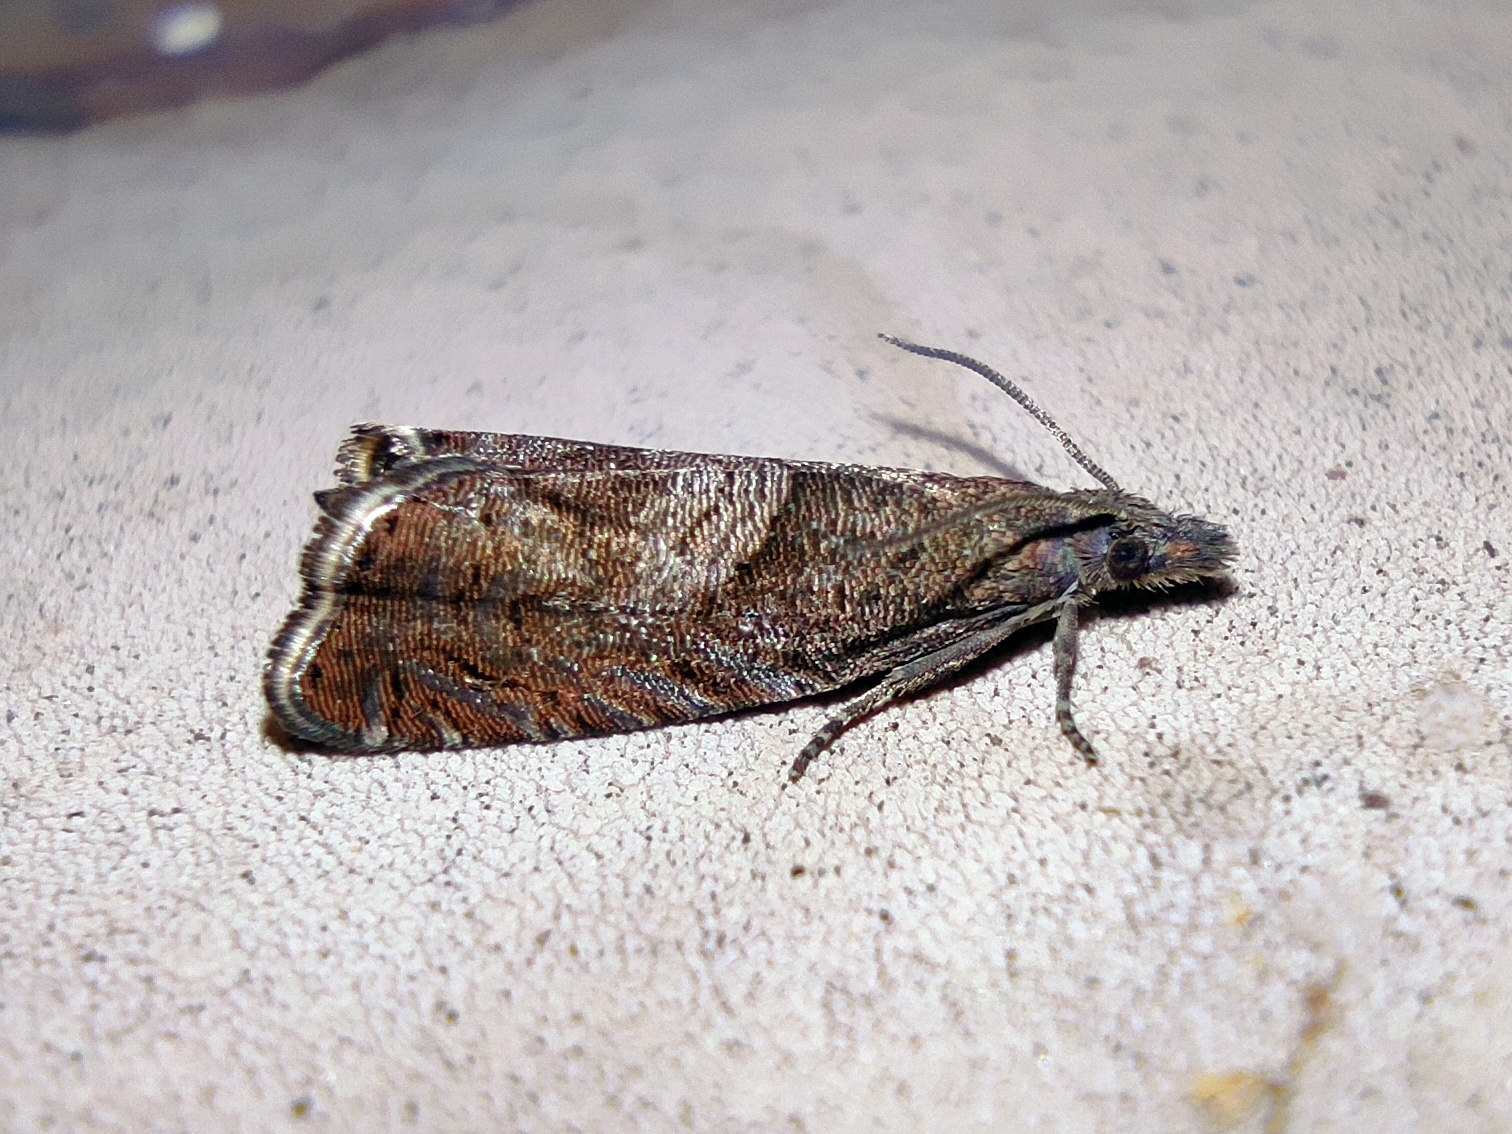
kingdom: Animalia
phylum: Arthropoda
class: Insecta
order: Lepidoptera
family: Tortricidae
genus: Dichrorampha
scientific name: Dichrorampha acuminatana
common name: Sharp-winged drill
